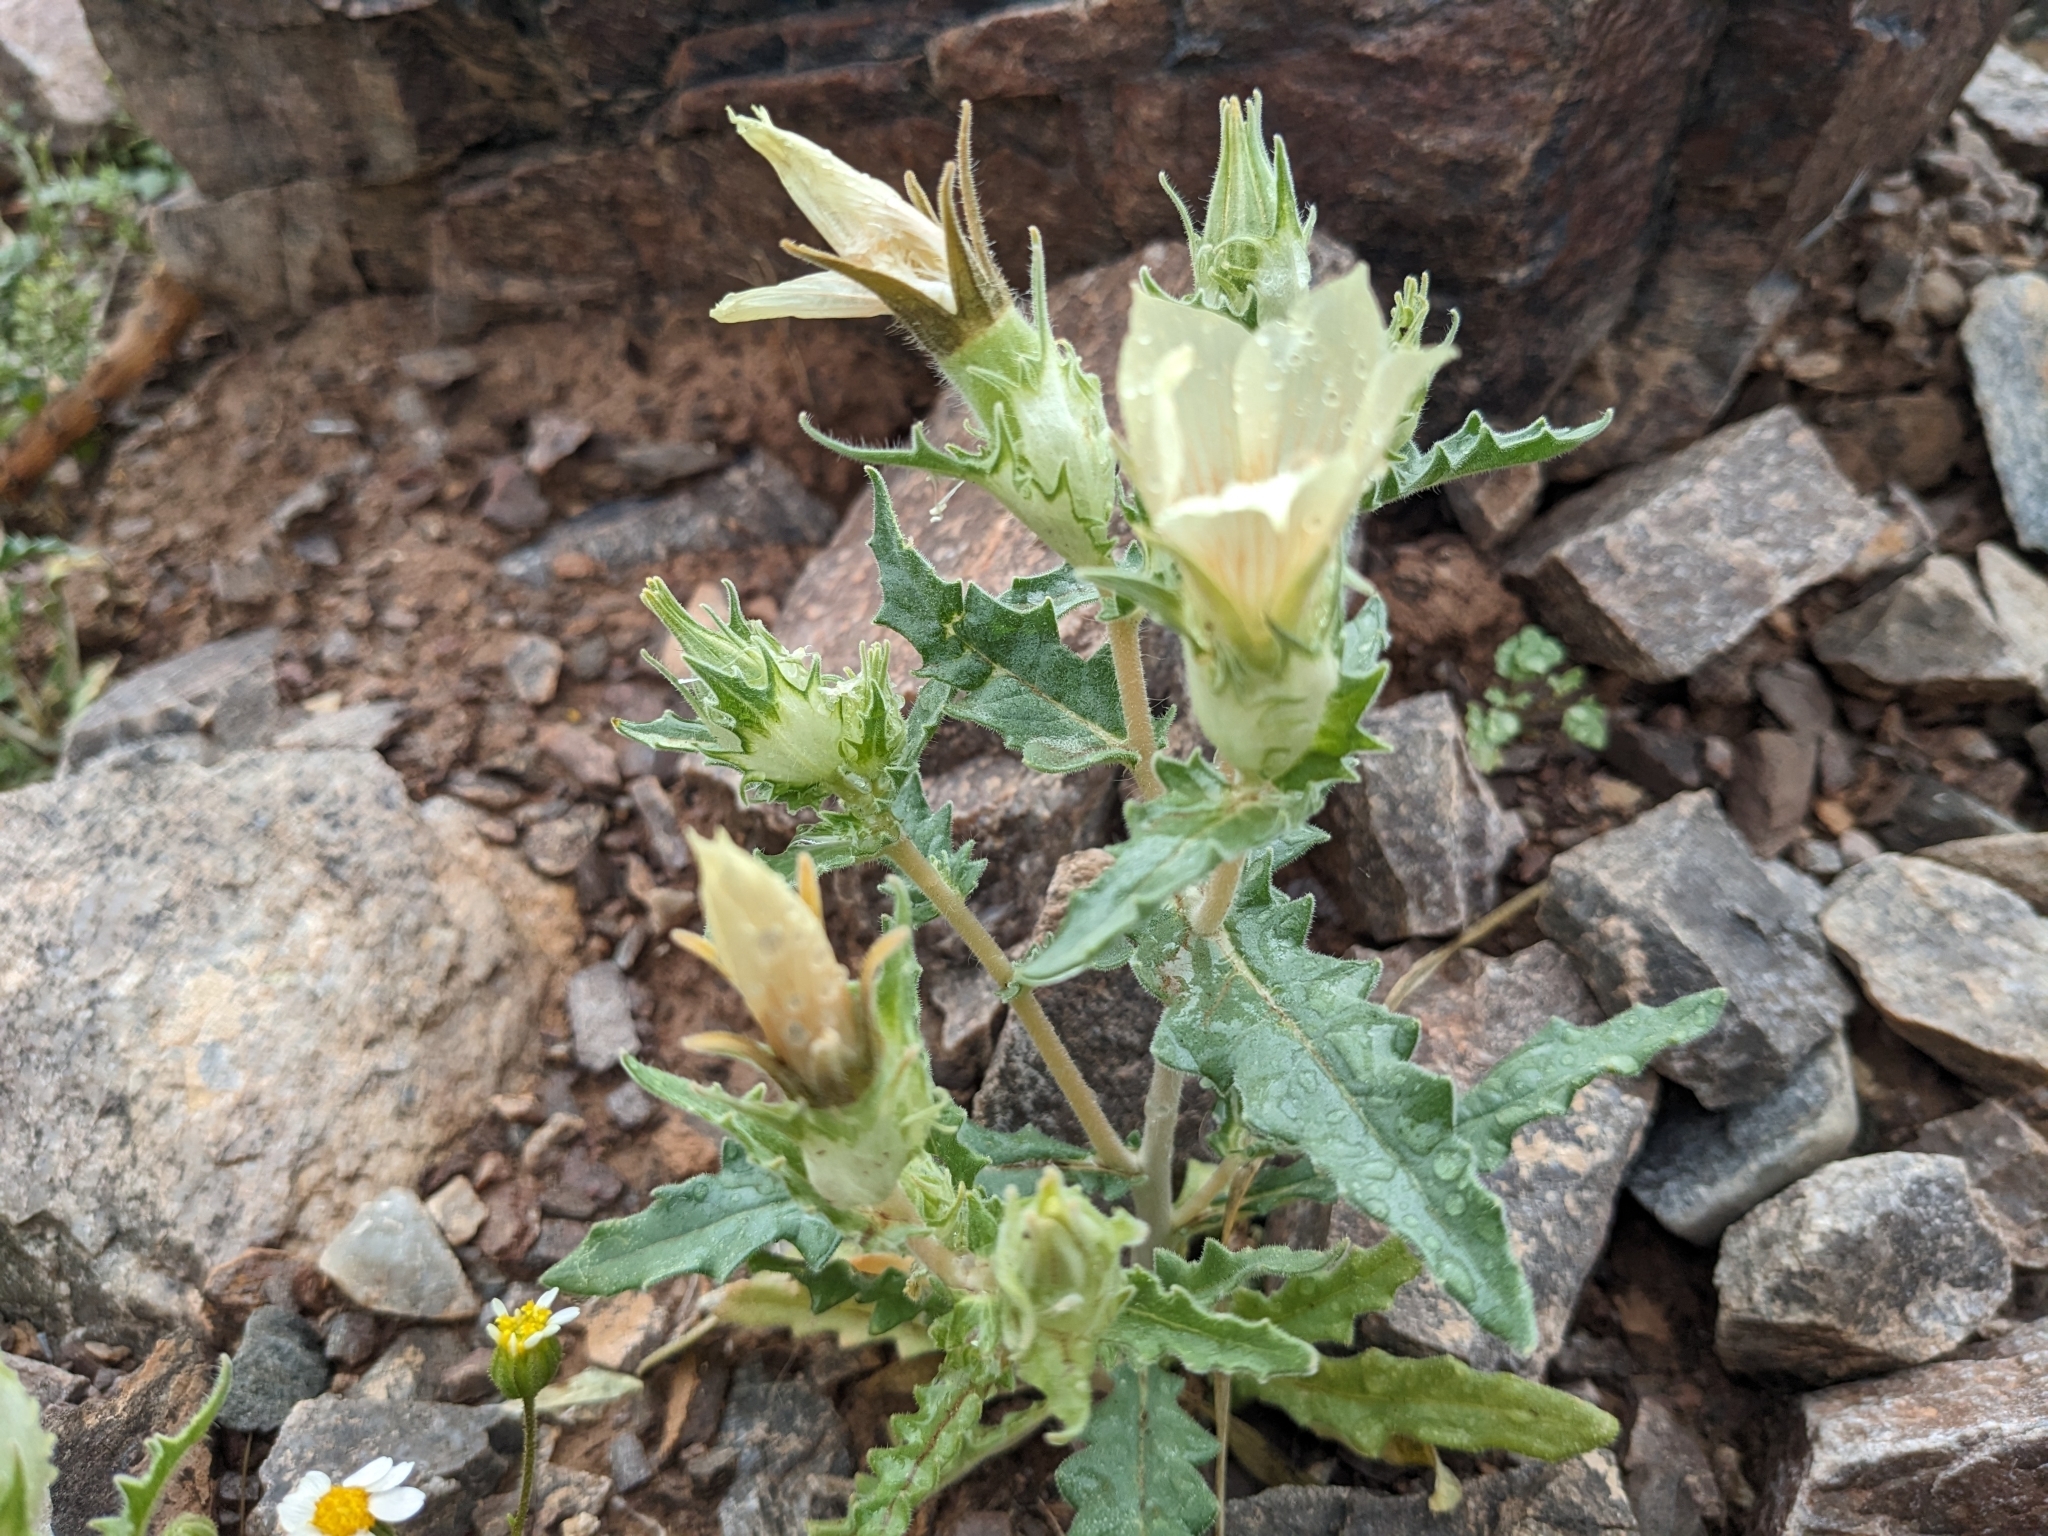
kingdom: Plantae
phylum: Tracheophyta
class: Magnoliopsida
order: Cornales
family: Loasaceae
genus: Mentzelia
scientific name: Mentzelia involucrata
